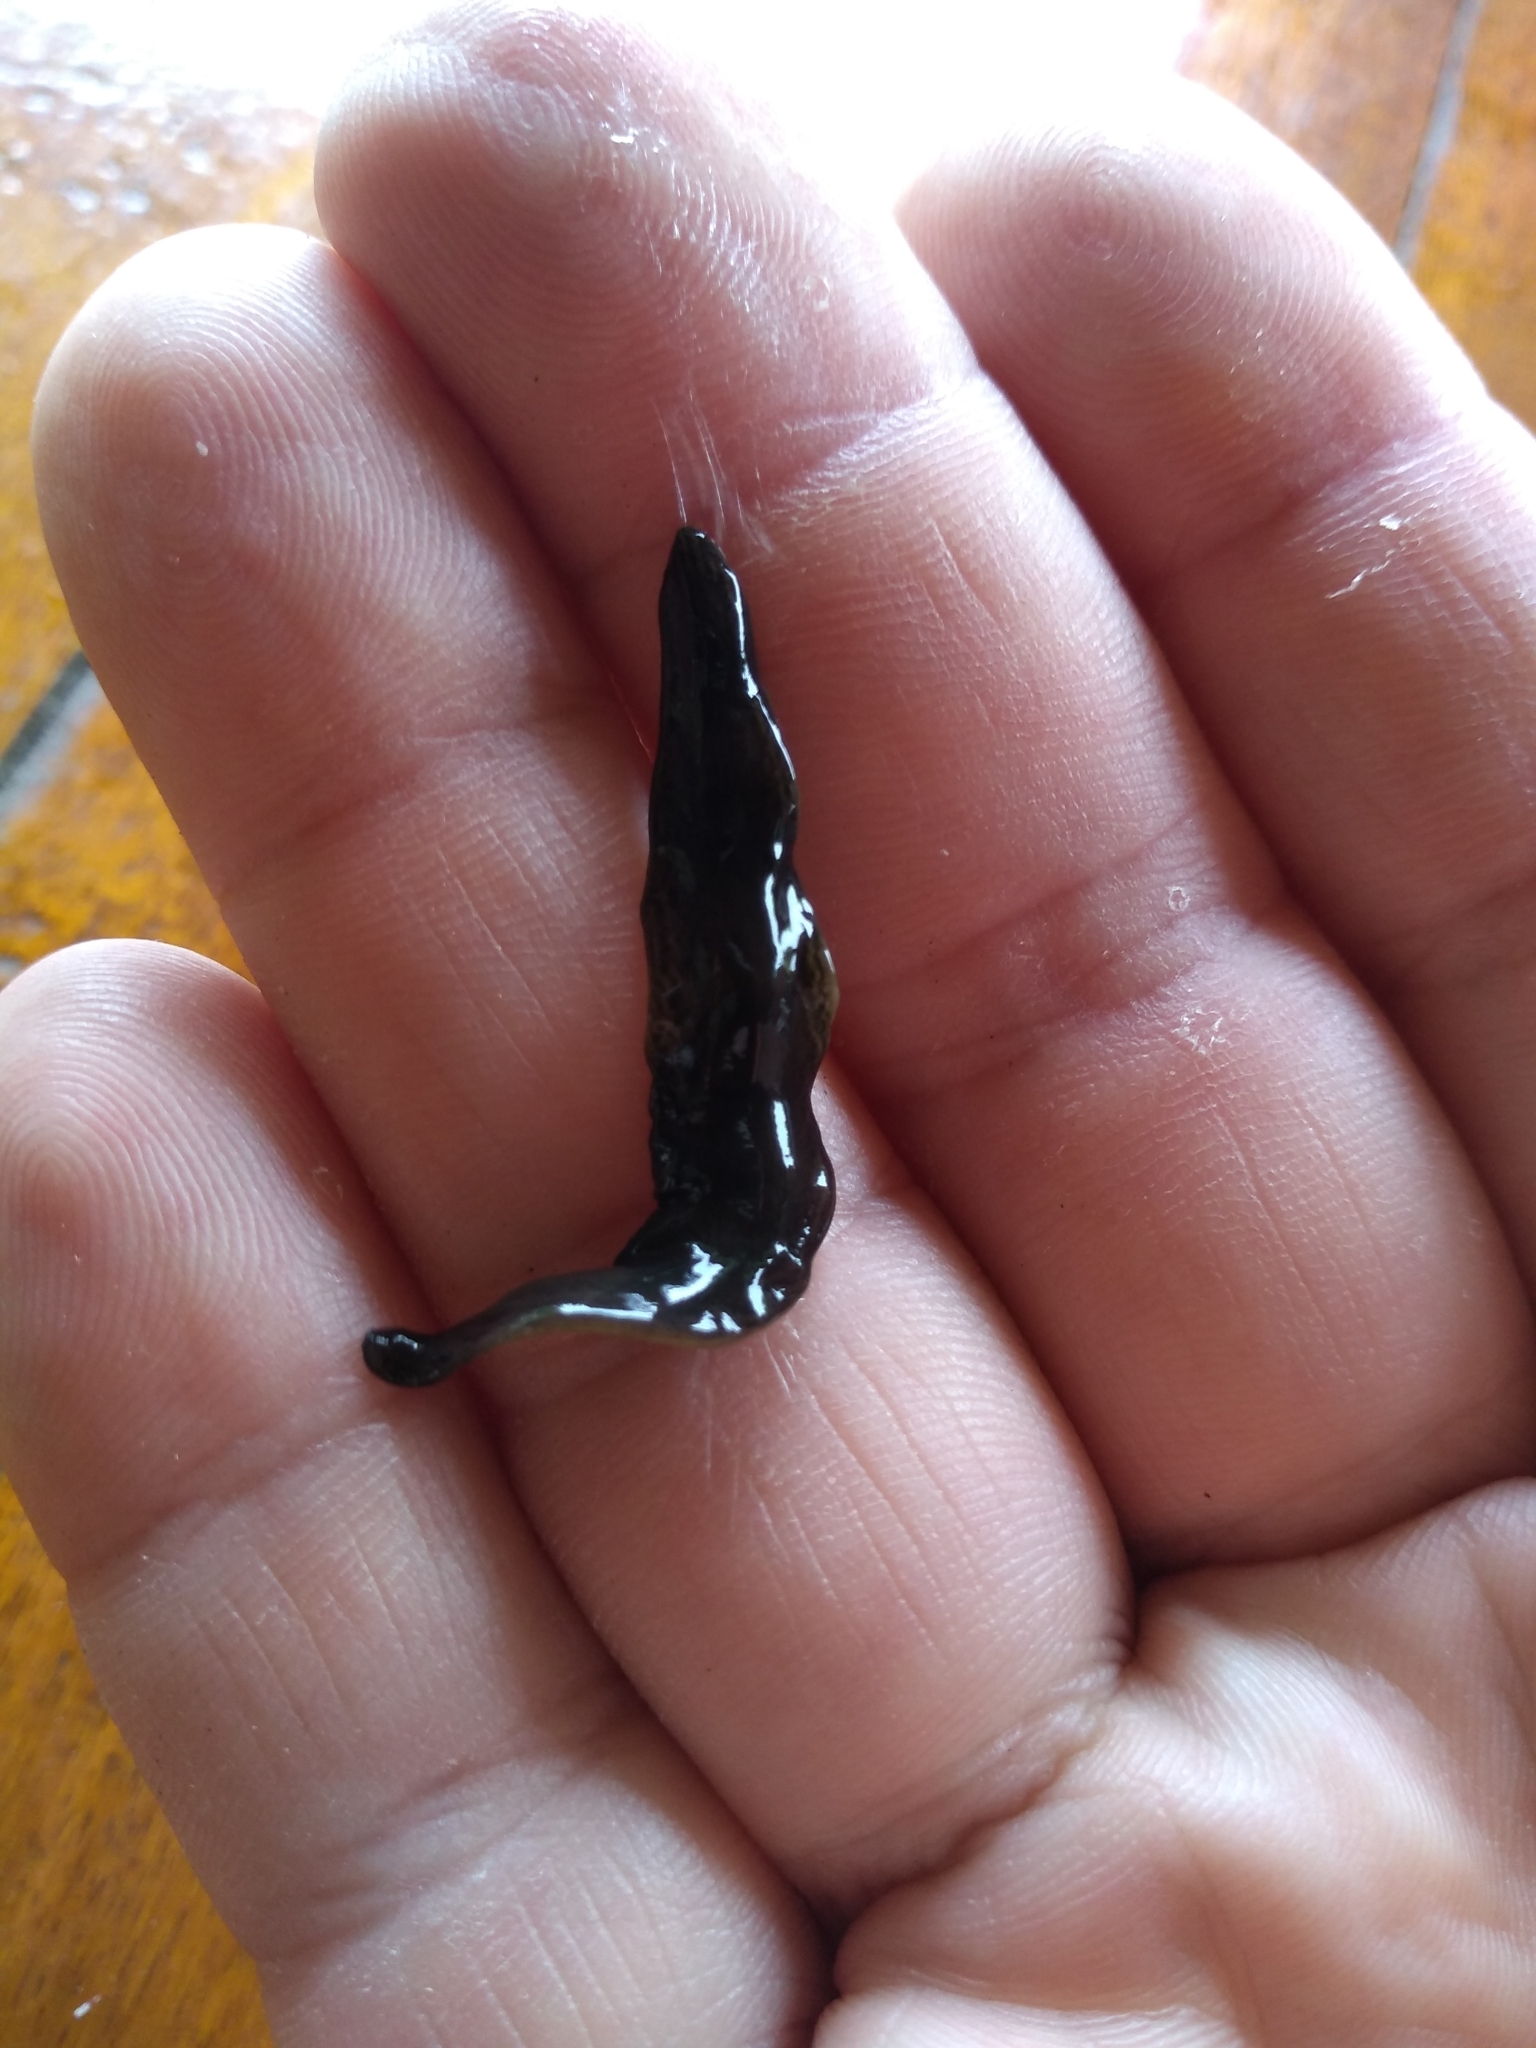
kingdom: Animalia
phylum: Platyhelminthes
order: Tricladida
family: Geoplanidae
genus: Obama
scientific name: Obama nungara
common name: Obama flatworm
